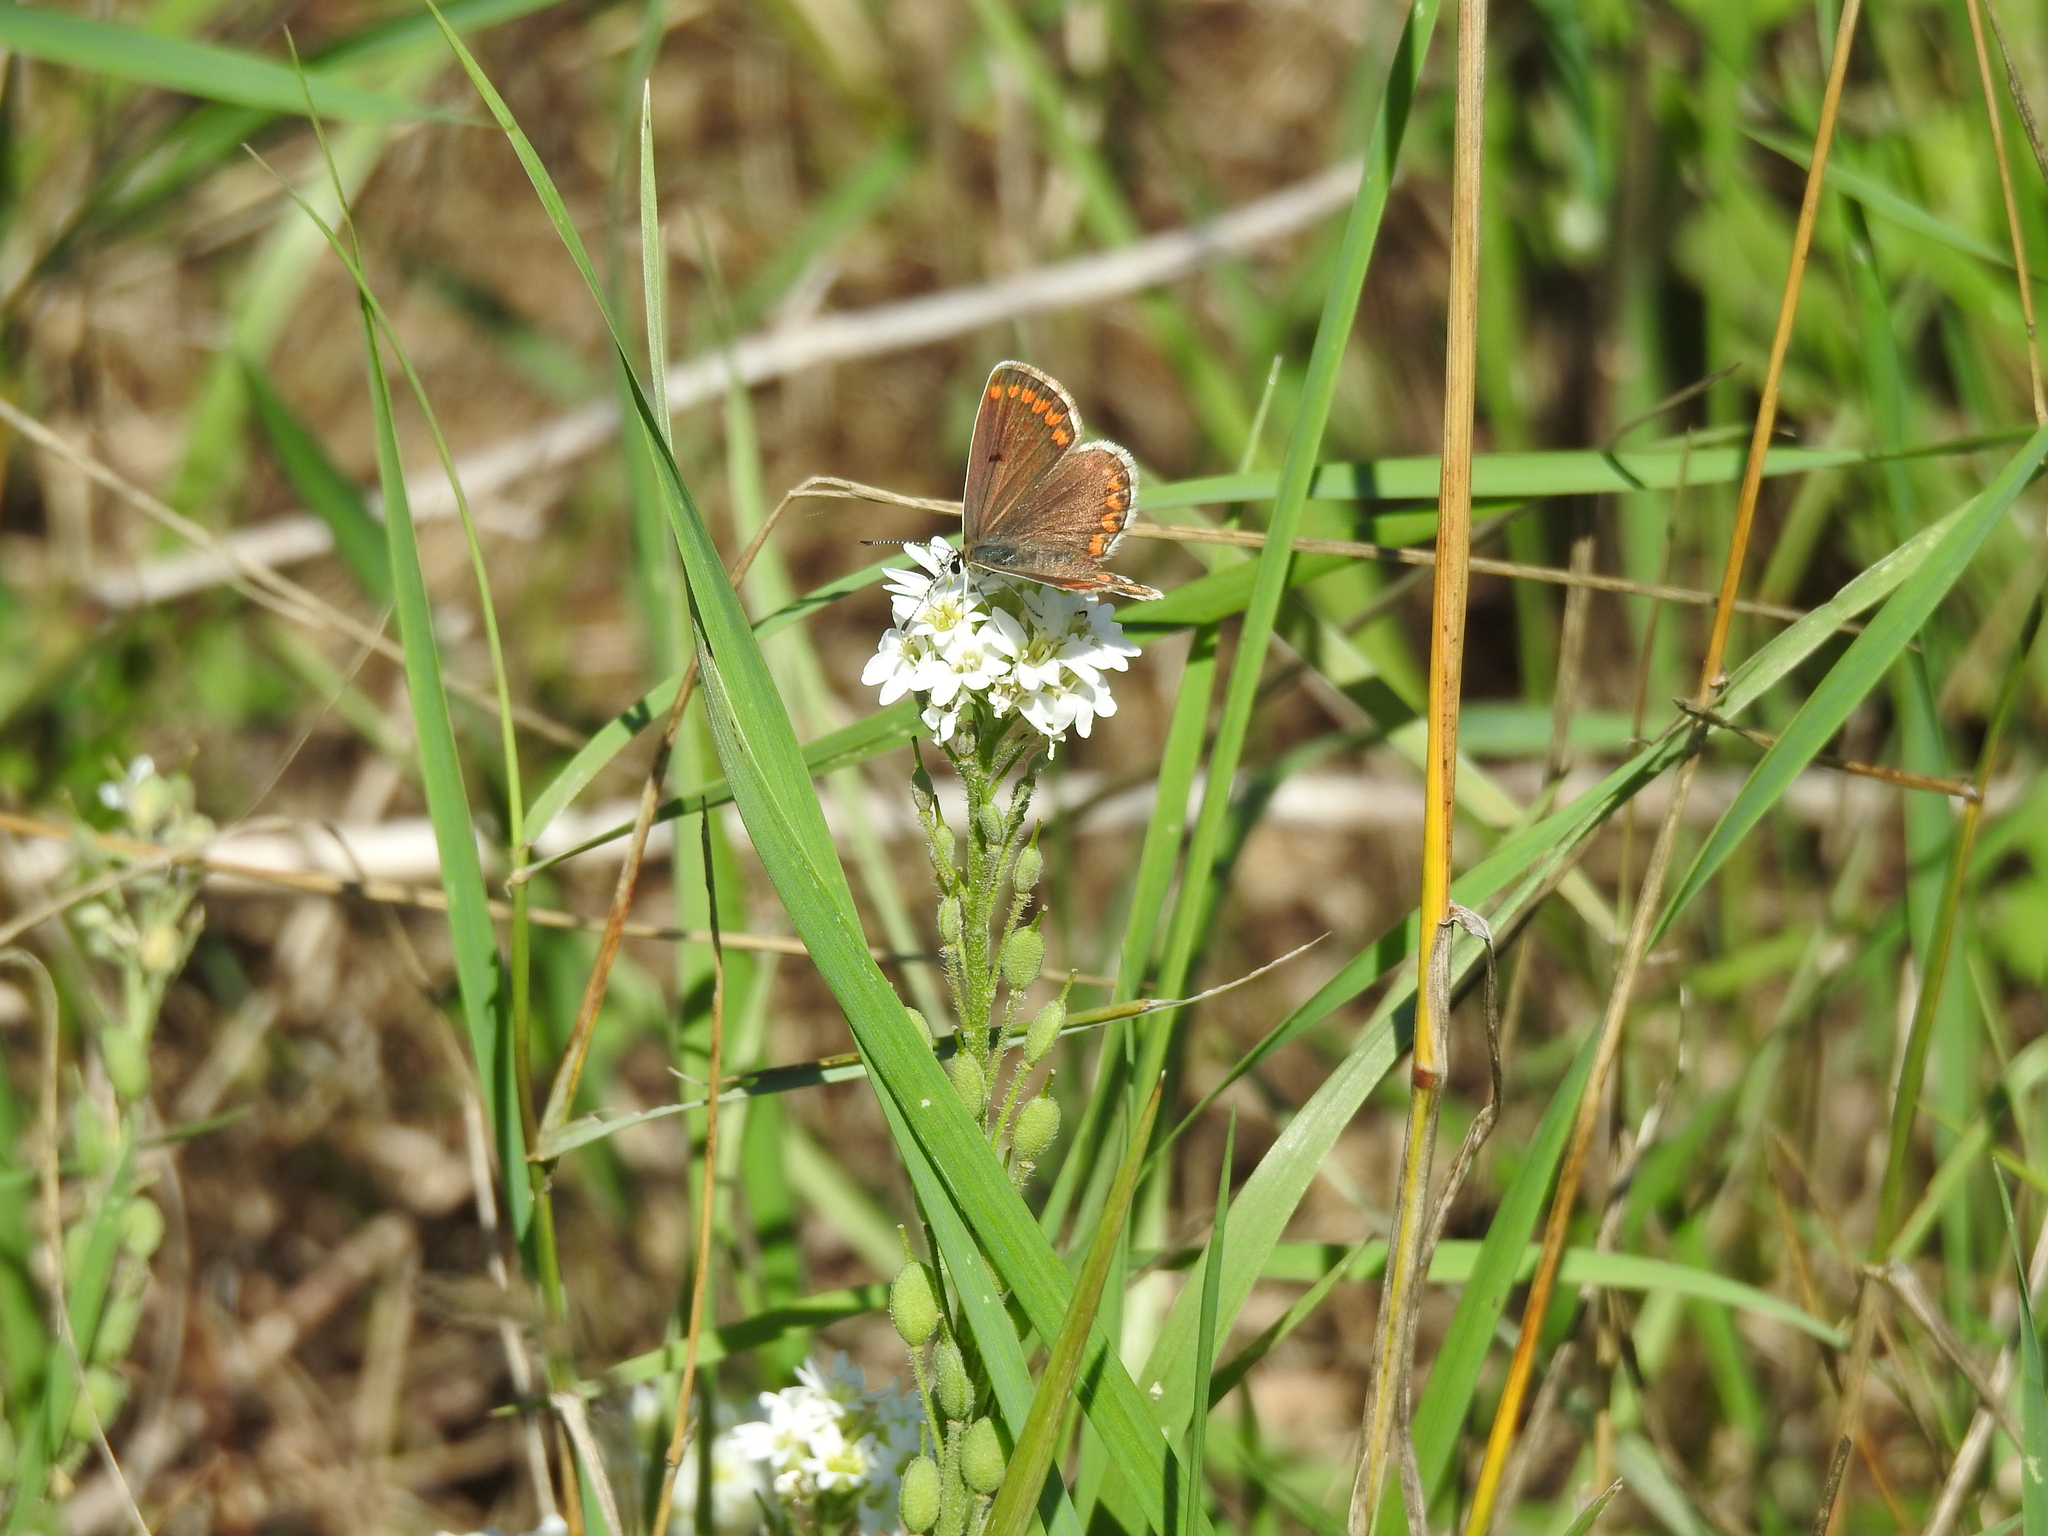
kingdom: Animalia
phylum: Arthropoda
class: Insecta
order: Lepidoptera
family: Lycaenidae
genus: Aricia
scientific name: Aricia agestis
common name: Brown argus
